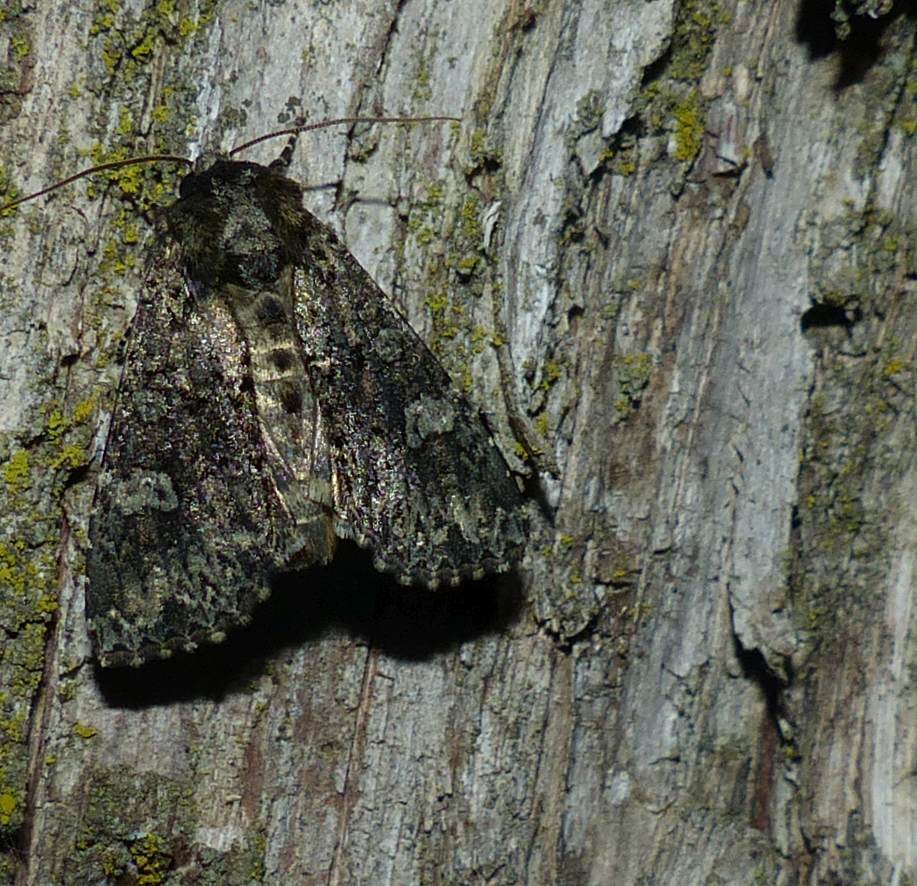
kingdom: Animalia
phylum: Arthropoda
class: Insecta
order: Lepidoptera
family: Noctuidae
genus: Melanchra
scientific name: Melanchra adjuncta
